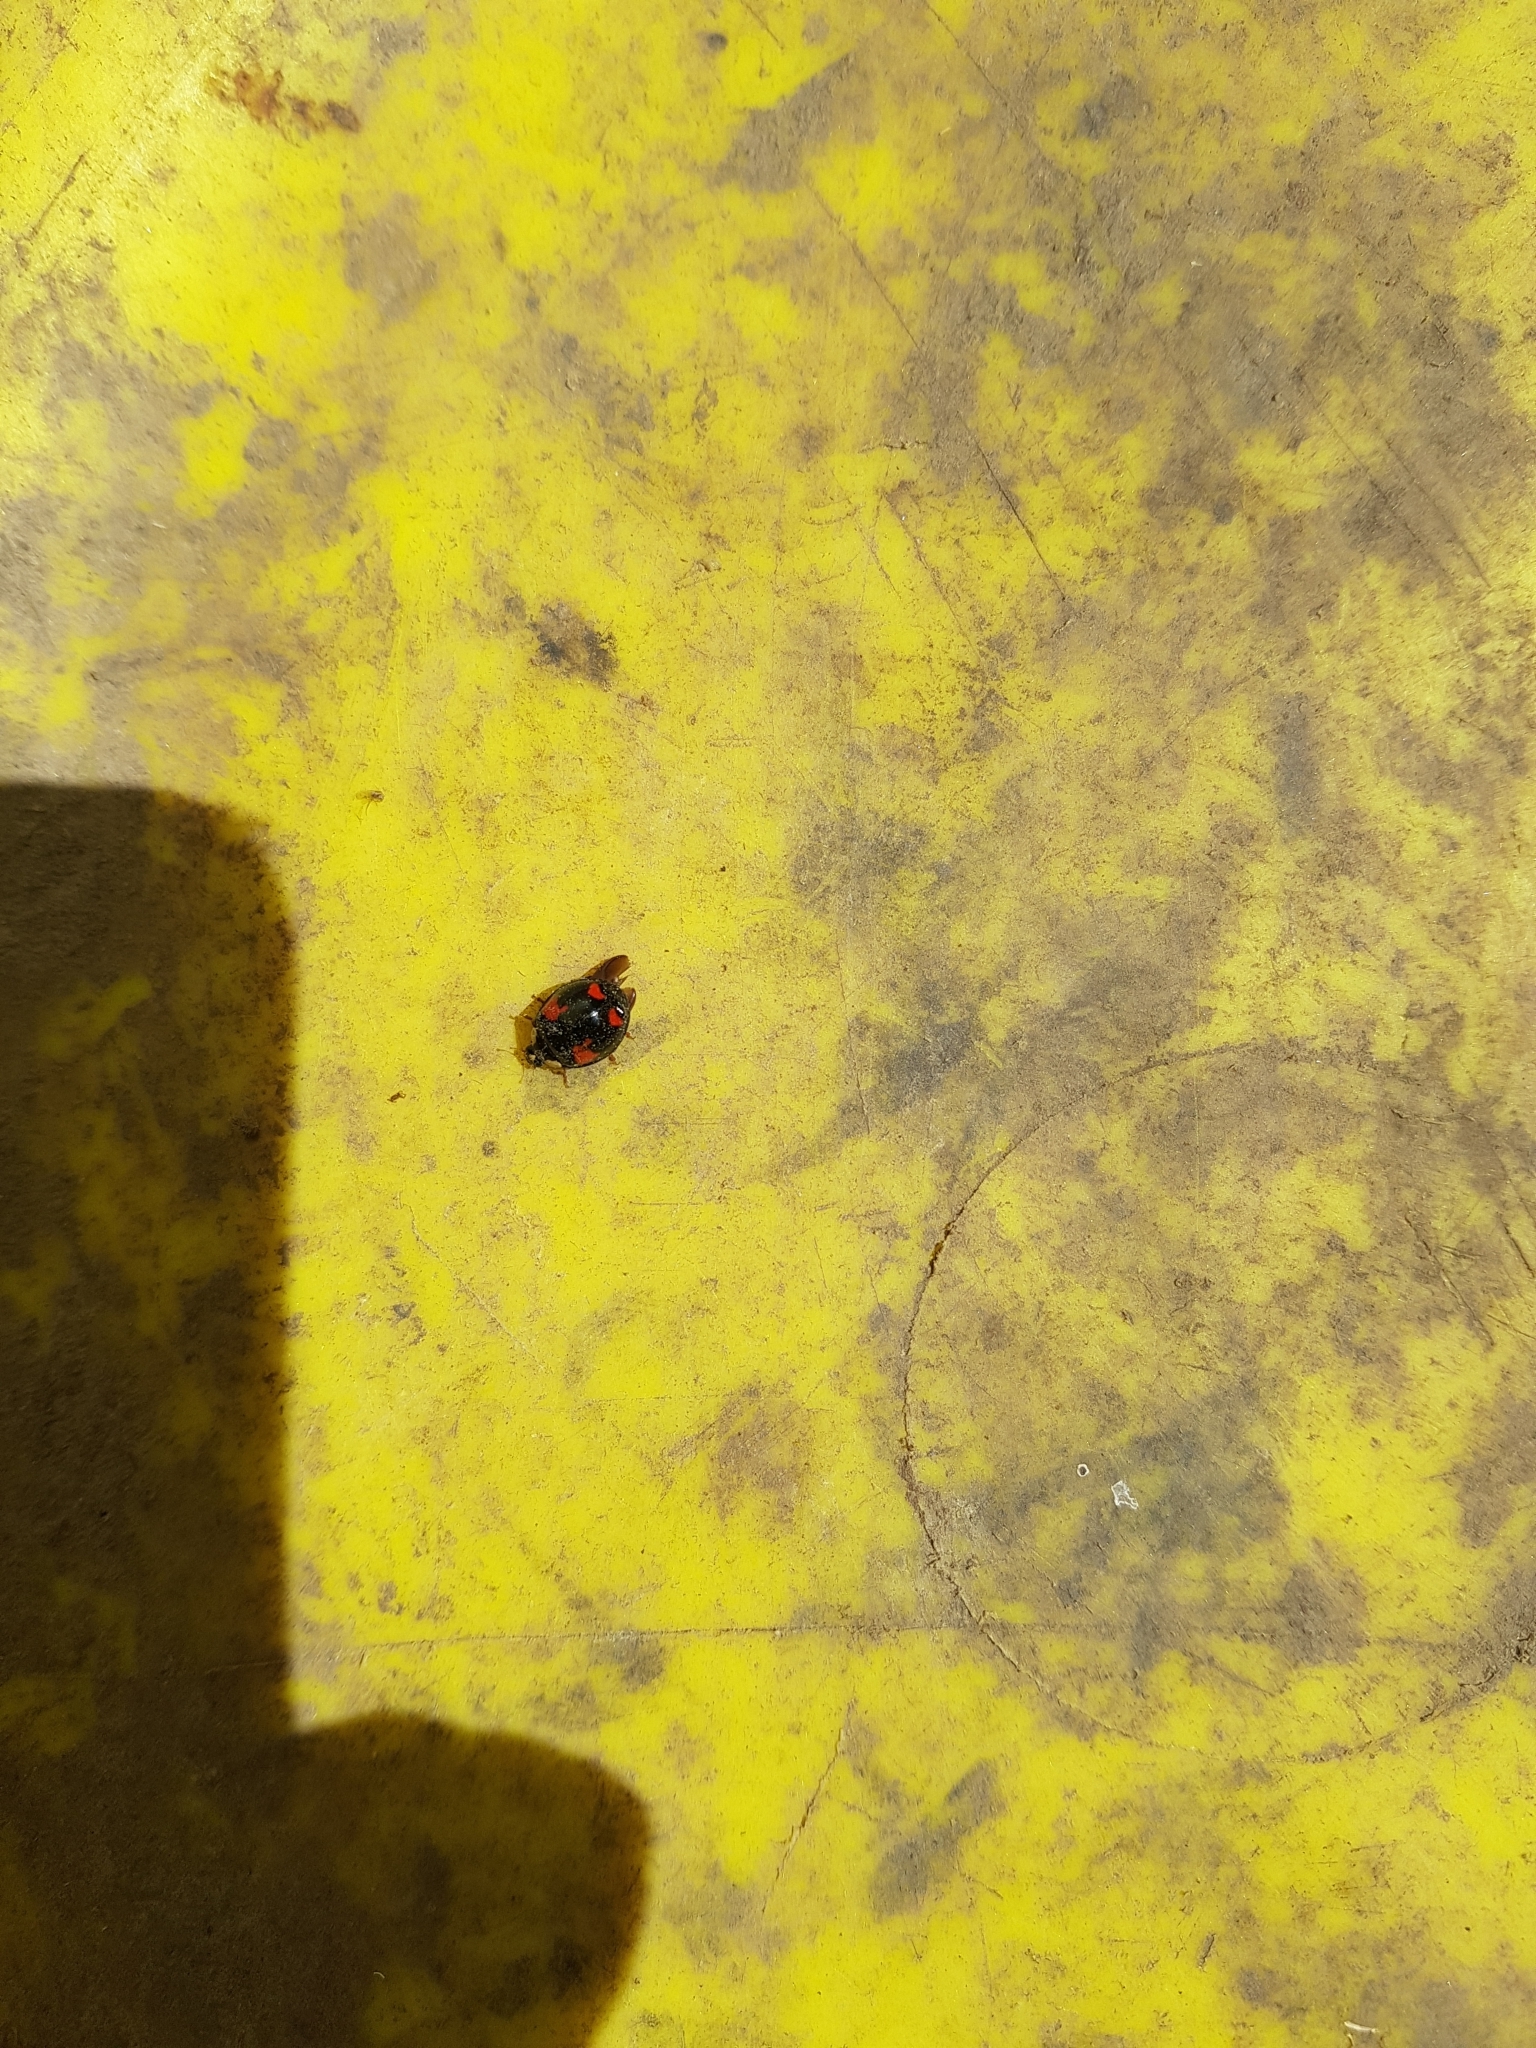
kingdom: Animalia
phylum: Arthropoda
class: Insecta
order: Coleoptera
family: Coccinellidae
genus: Harmonia
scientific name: Harmonia axyridis
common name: Harlequin ladybird
